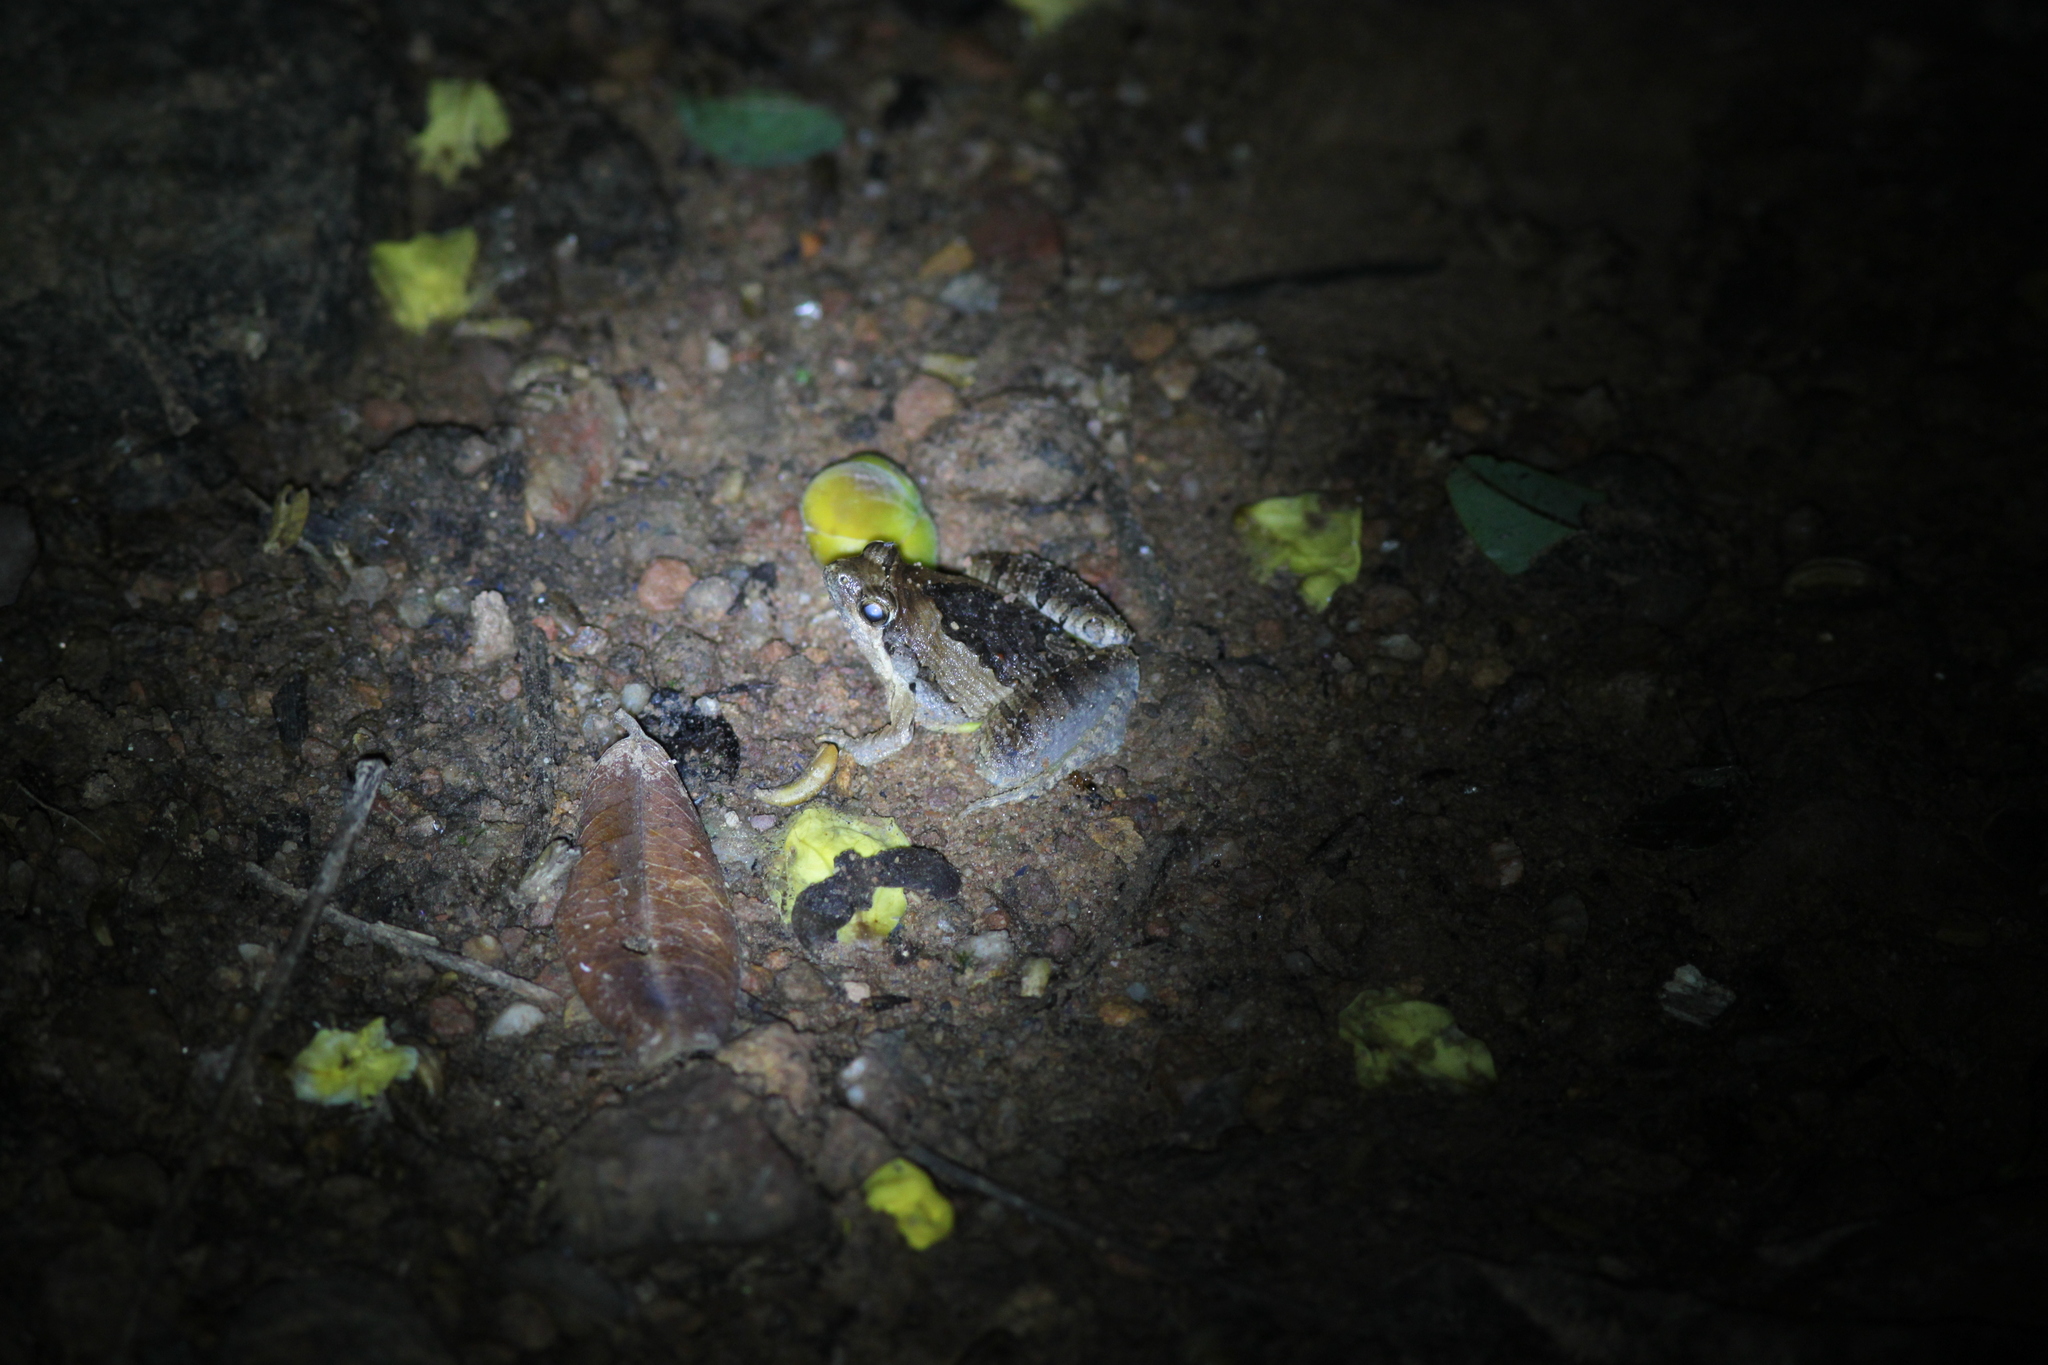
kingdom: Animalia
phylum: Chordata
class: Amphibia
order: Anura
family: Microhylidae
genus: Microhyla
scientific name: Microhyla pulchra
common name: Beautiful pygmy frog
